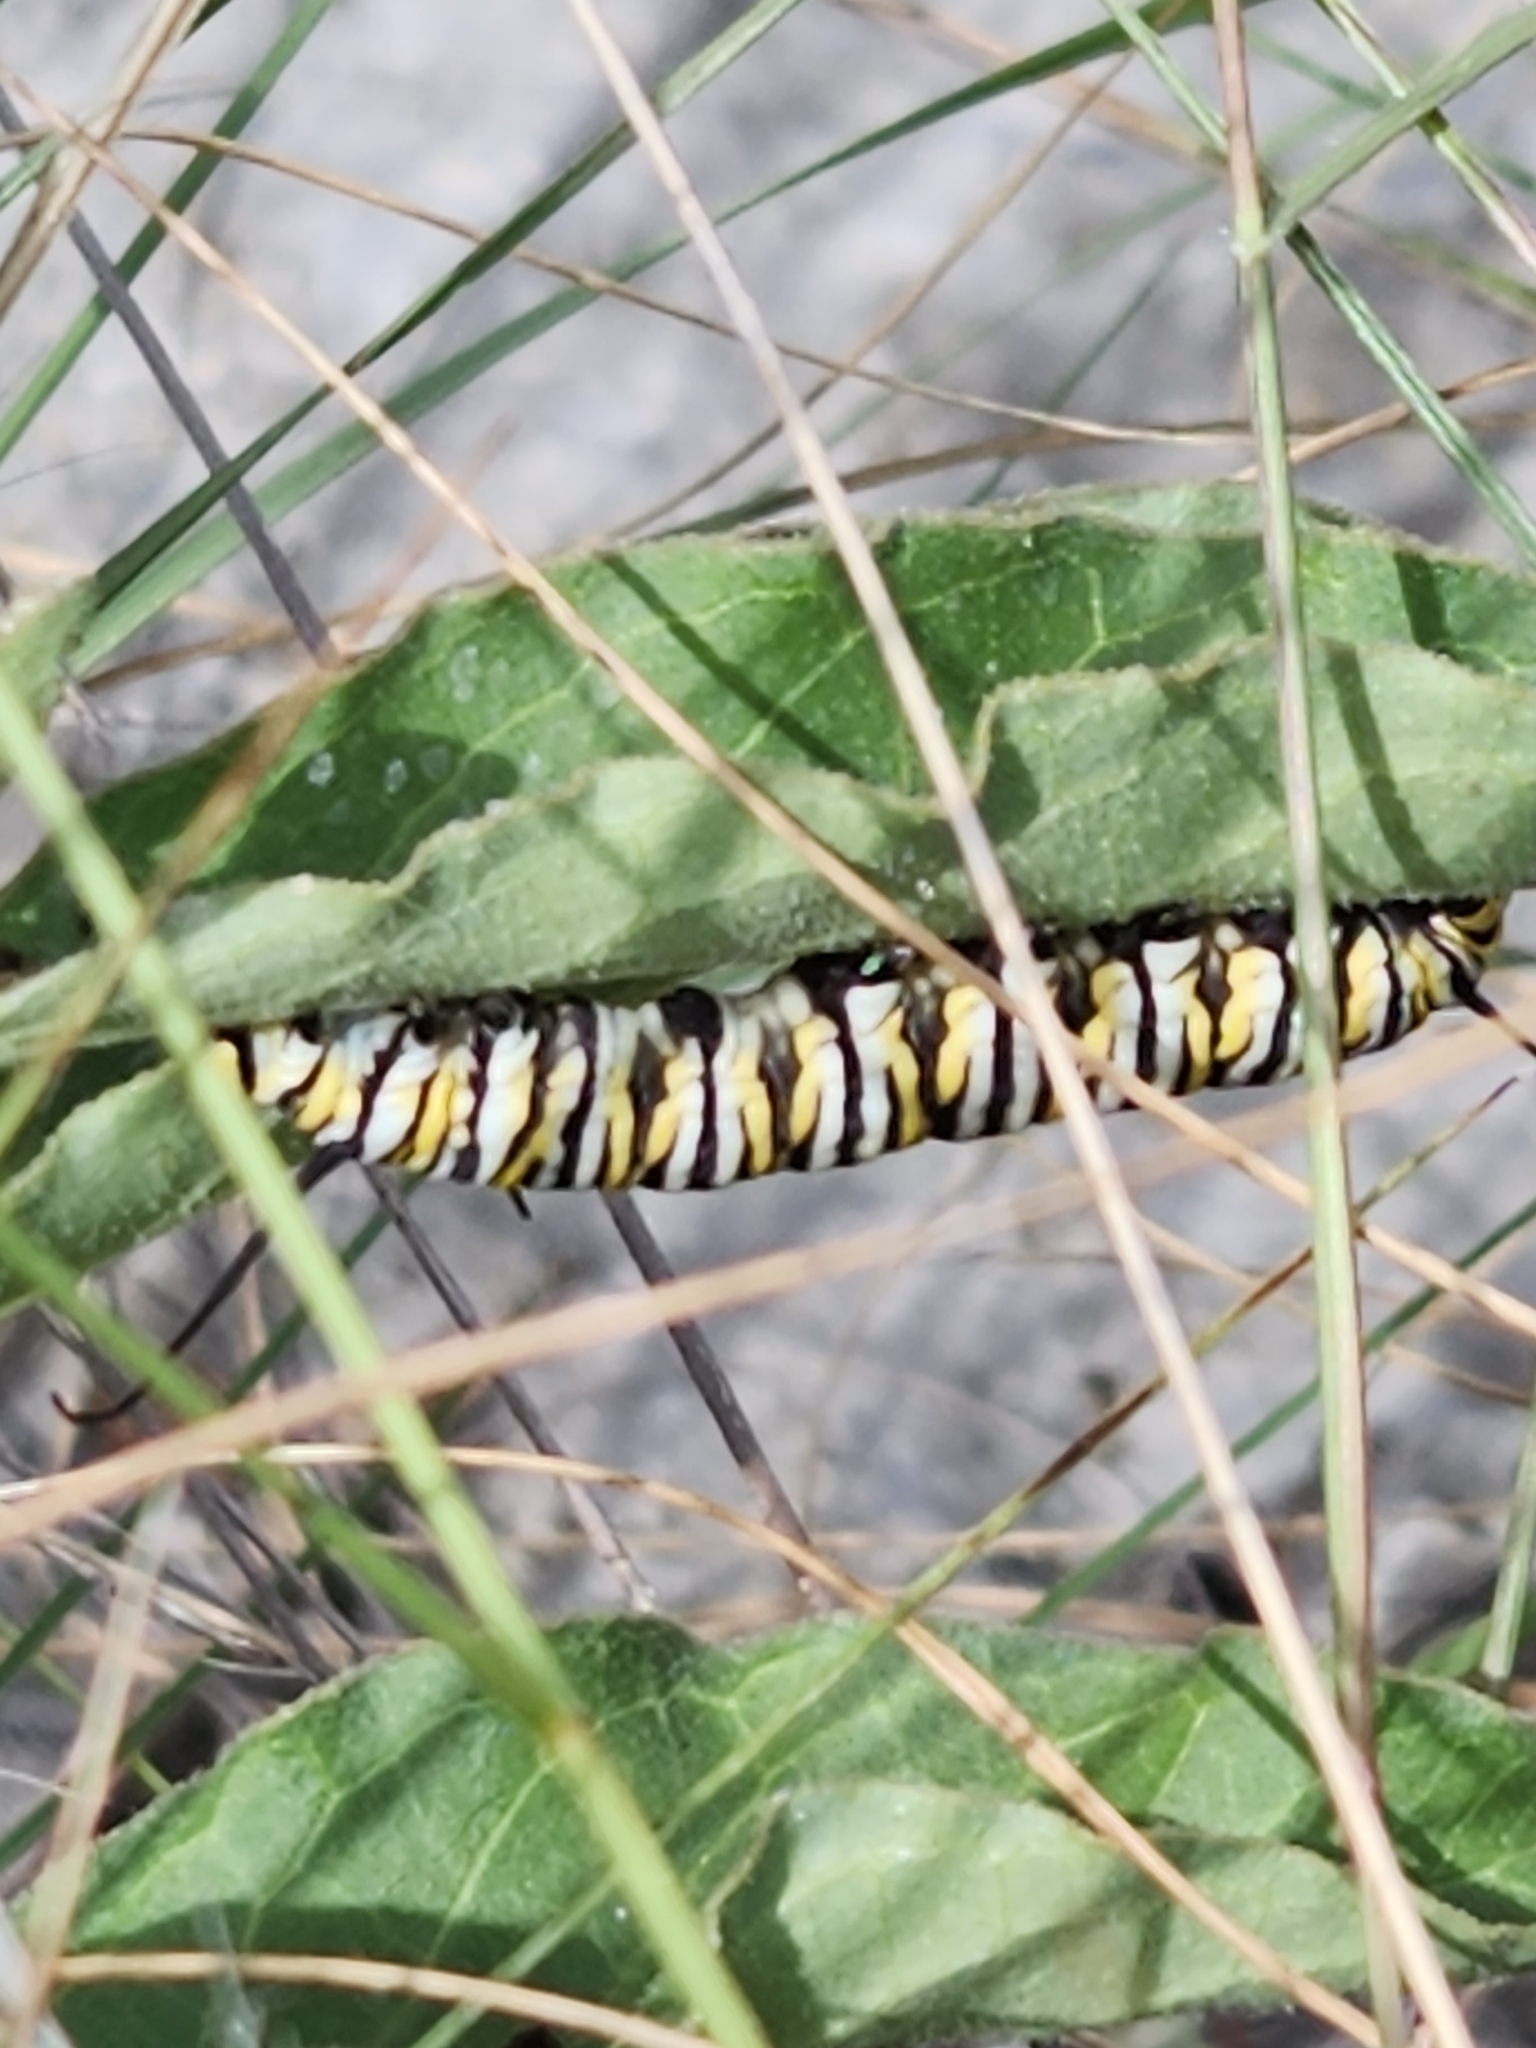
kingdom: Animalia
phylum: Arthropoda
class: Insecta
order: Lepidoptera
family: Nymphalidae
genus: Danaus
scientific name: Danaus plexippus
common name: Monarch
